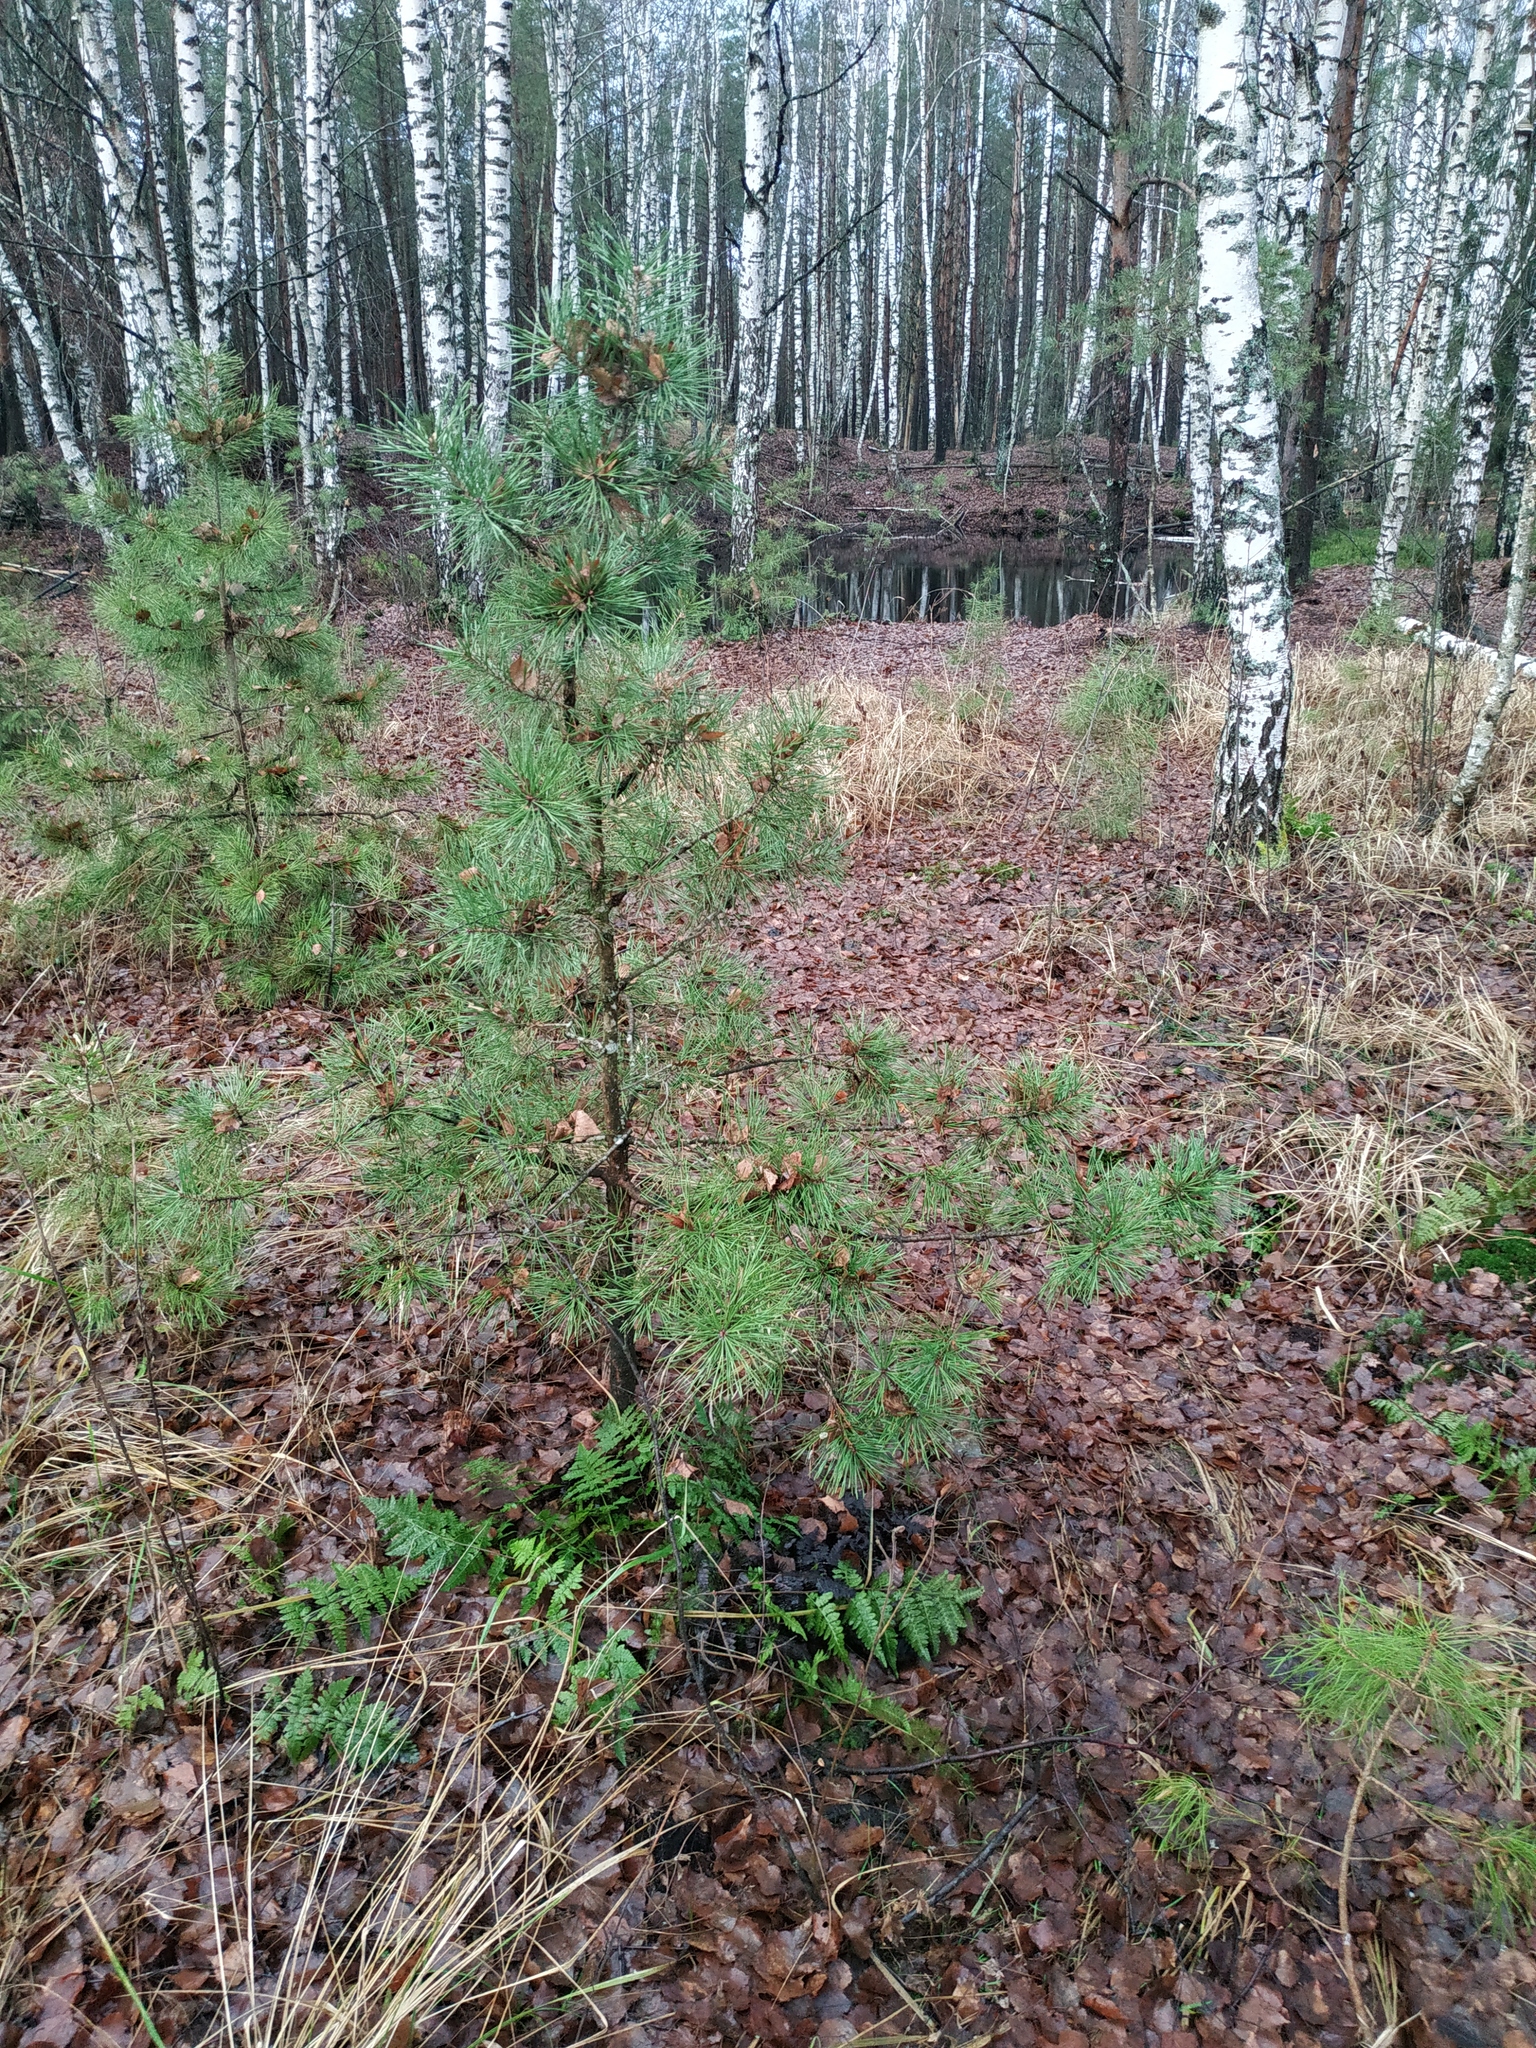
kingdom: Plantae
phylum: Tracheophyta
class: Pinopsida
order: Pinales
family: Pinaceae
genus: Pinus
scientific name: Pinus sylvestris
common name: Scots pine
